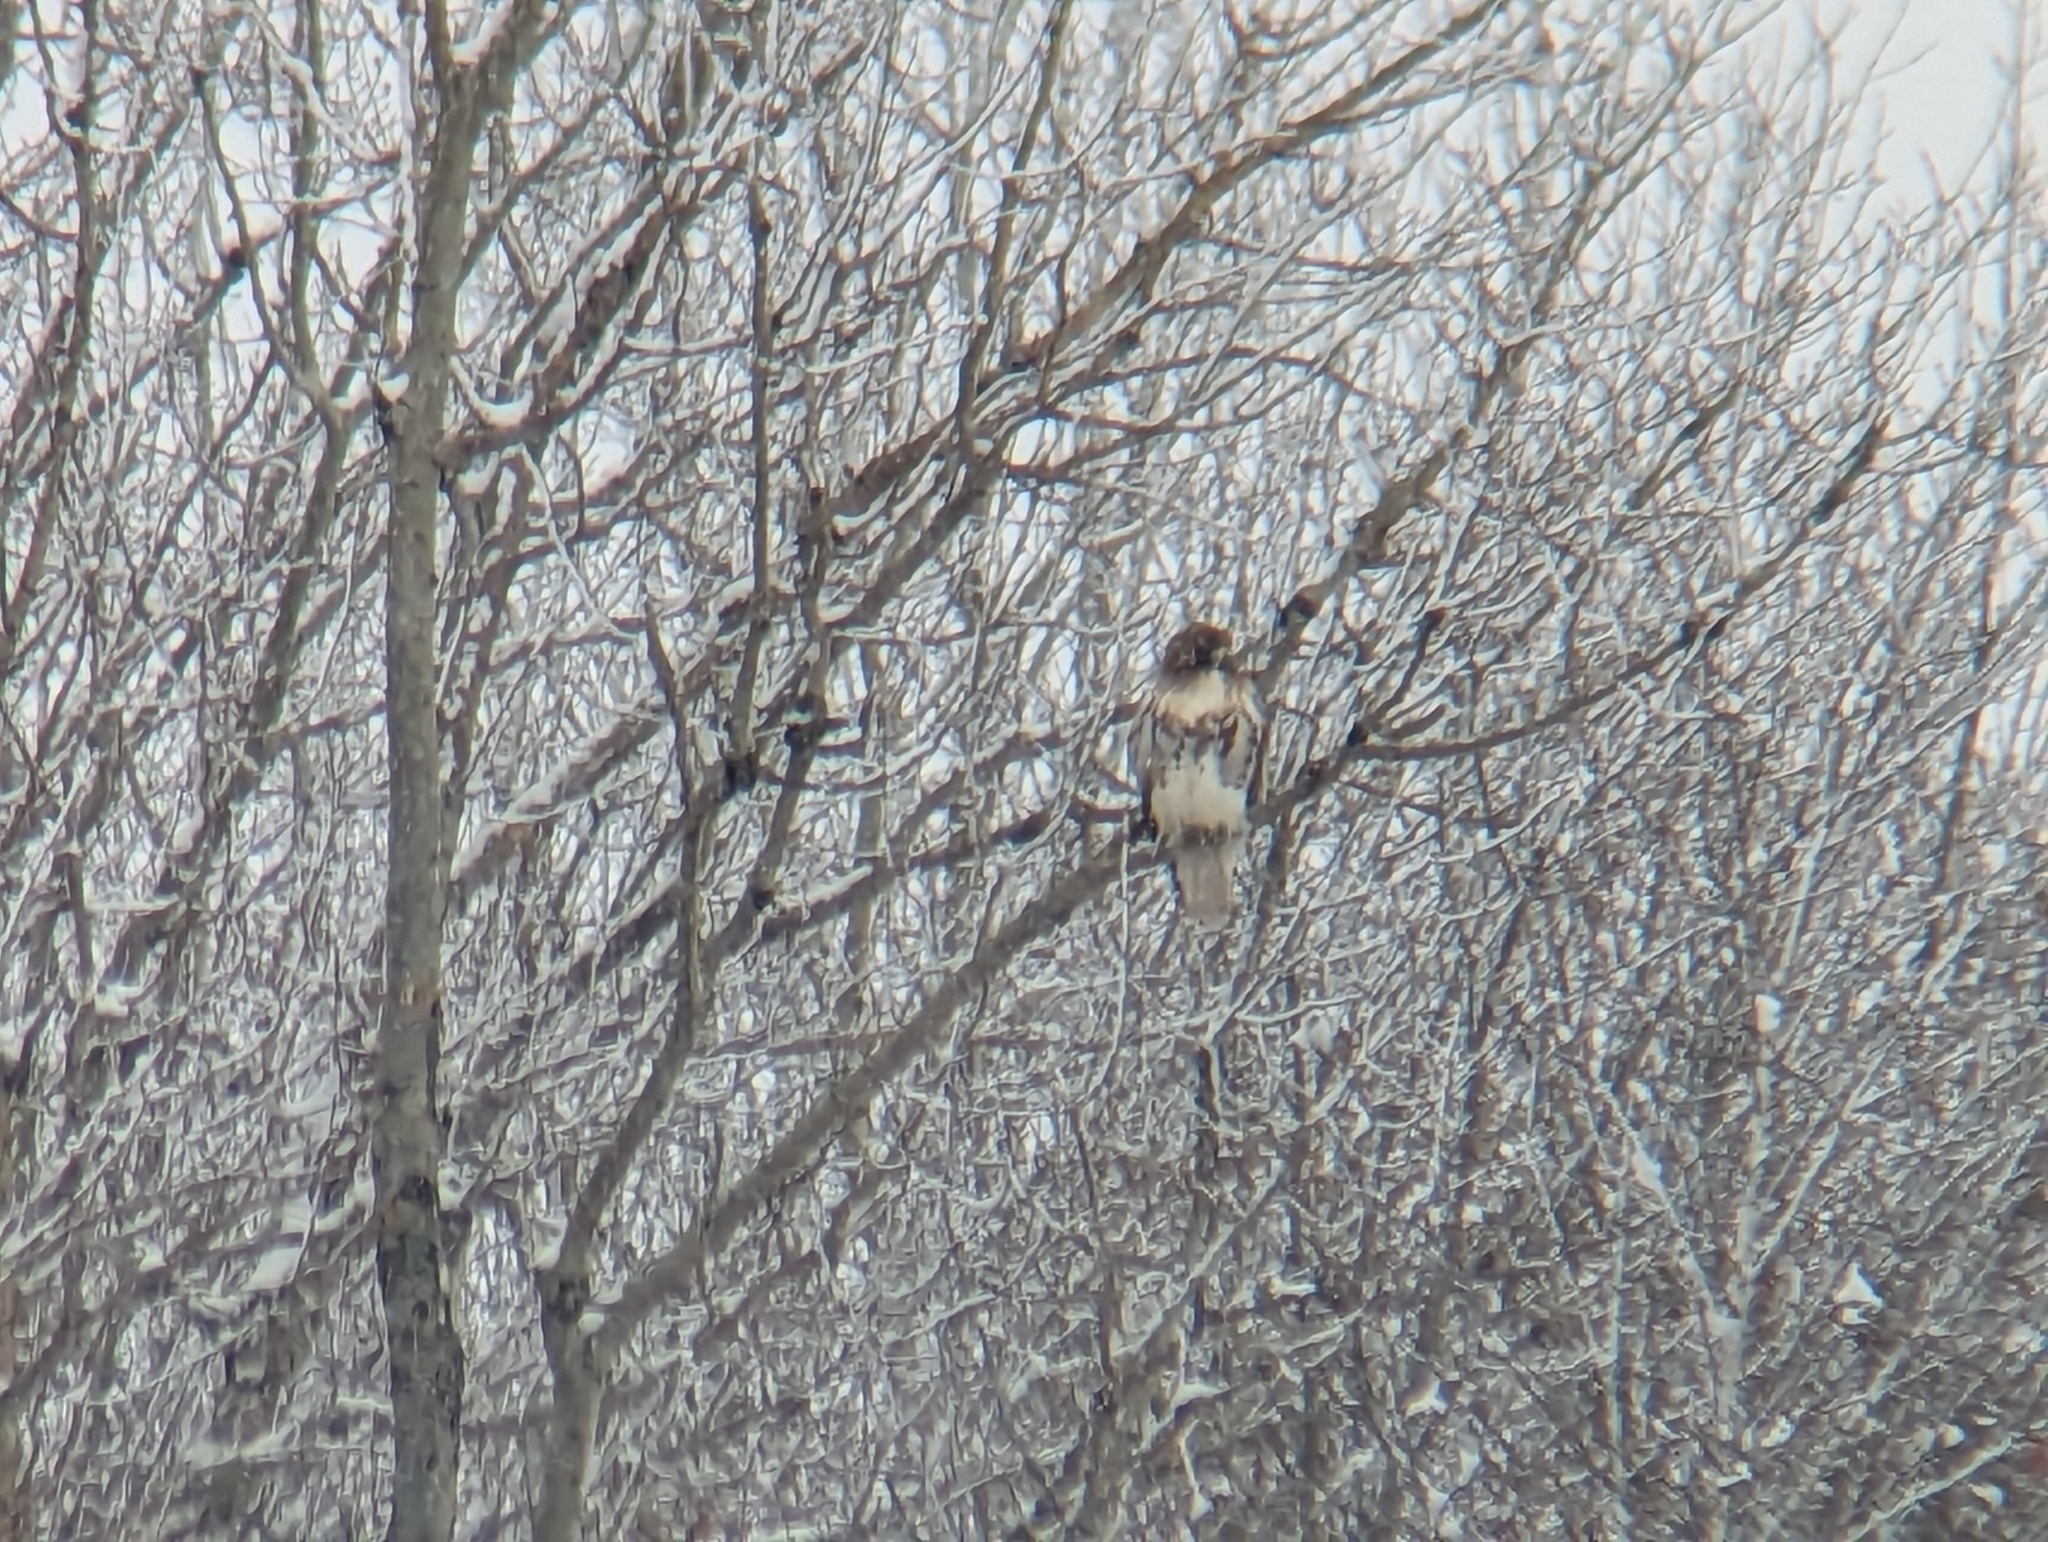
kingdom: Animalia
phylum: Chordata
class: Aves
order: Accipitriformes
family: Accipitridae
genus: Buteo
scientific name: Buteo jamaicensis
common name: Red-tailed hawk
